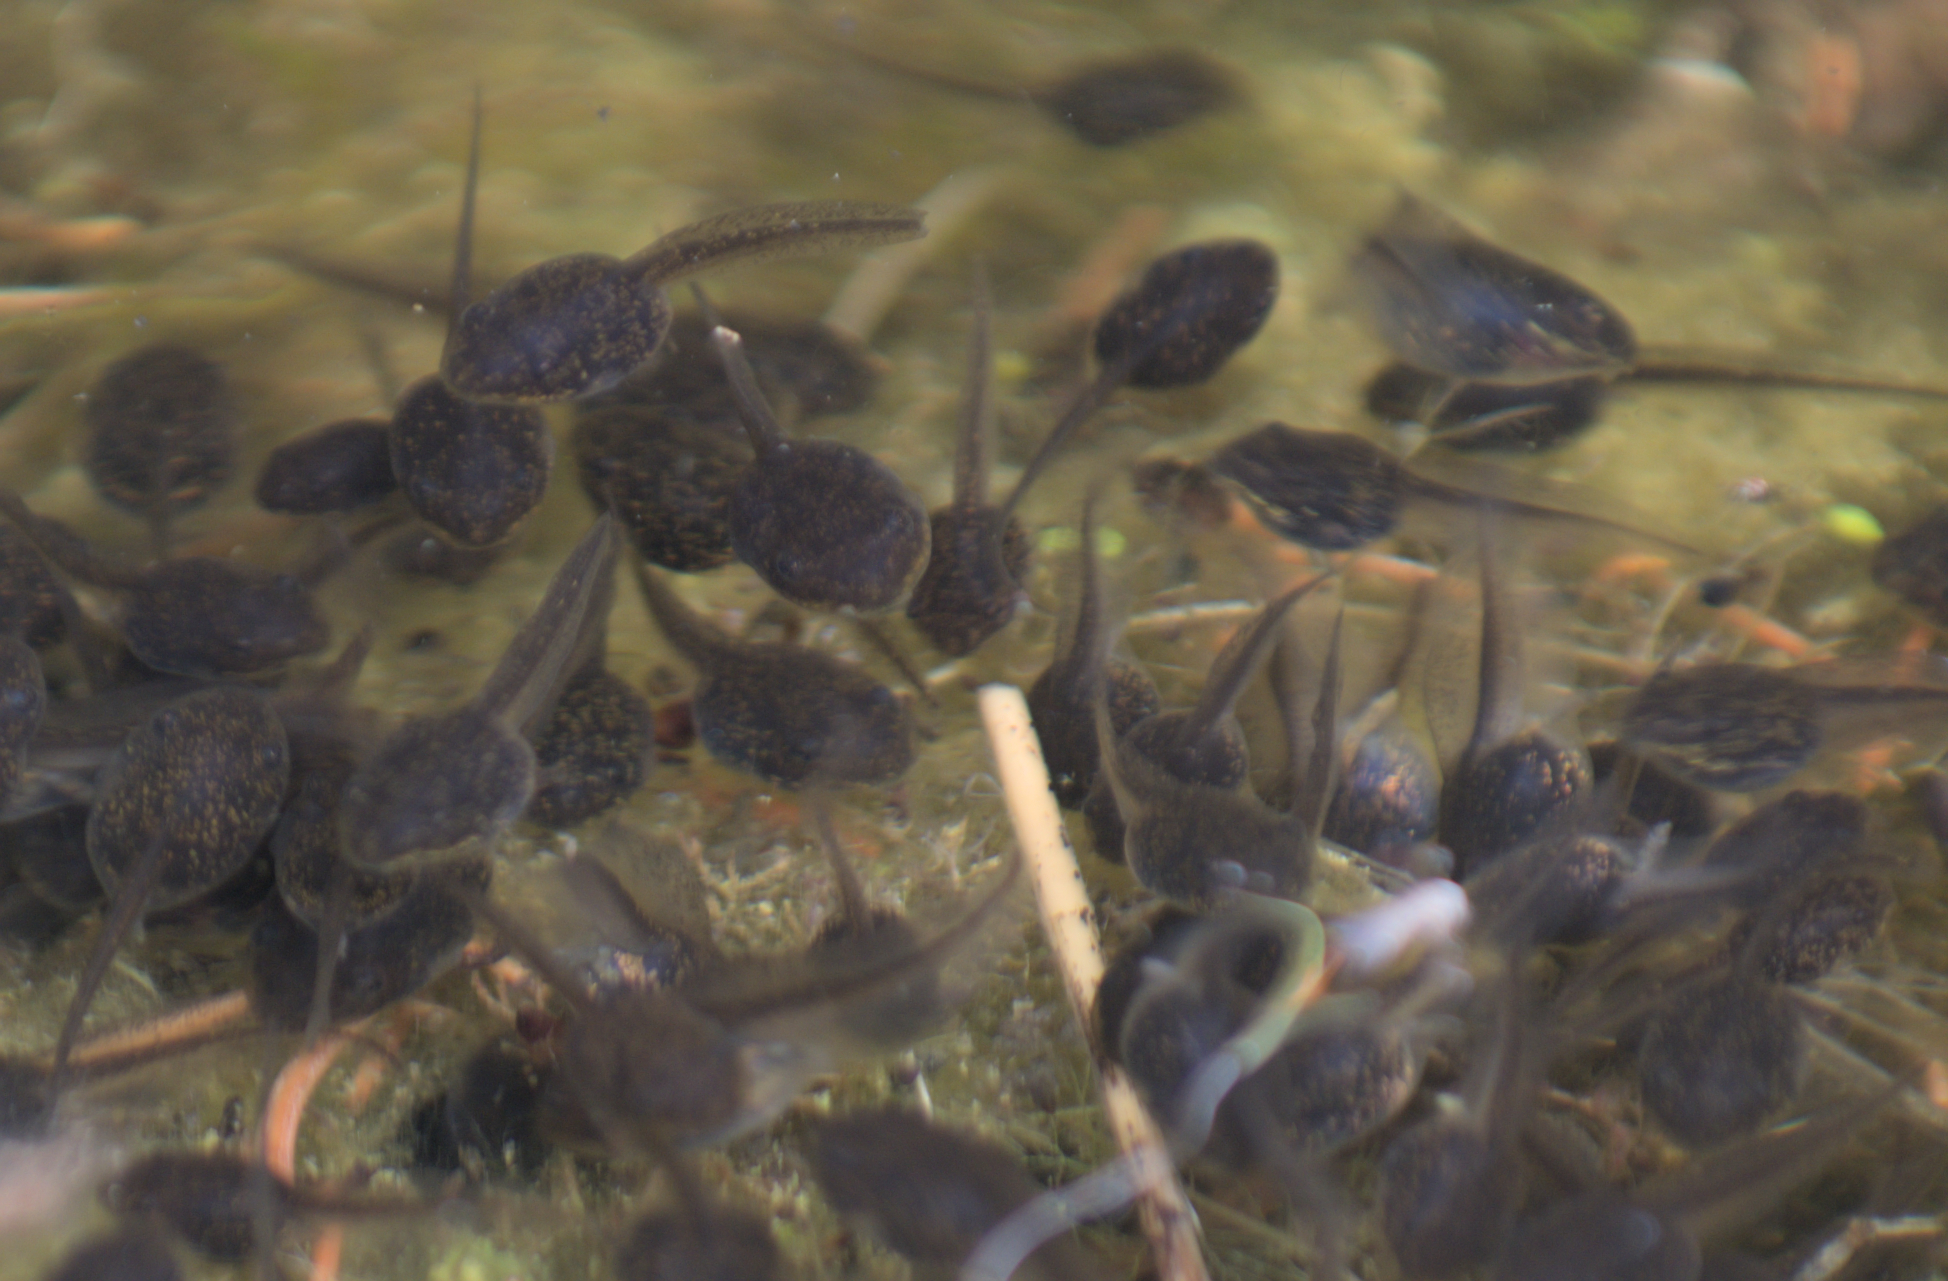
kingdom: Animalia
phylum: Chordata
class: Amphibia
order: Anura
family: Ranidae
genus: Lithobates
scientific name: Lithobates sylvaticus
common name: Wood frog
